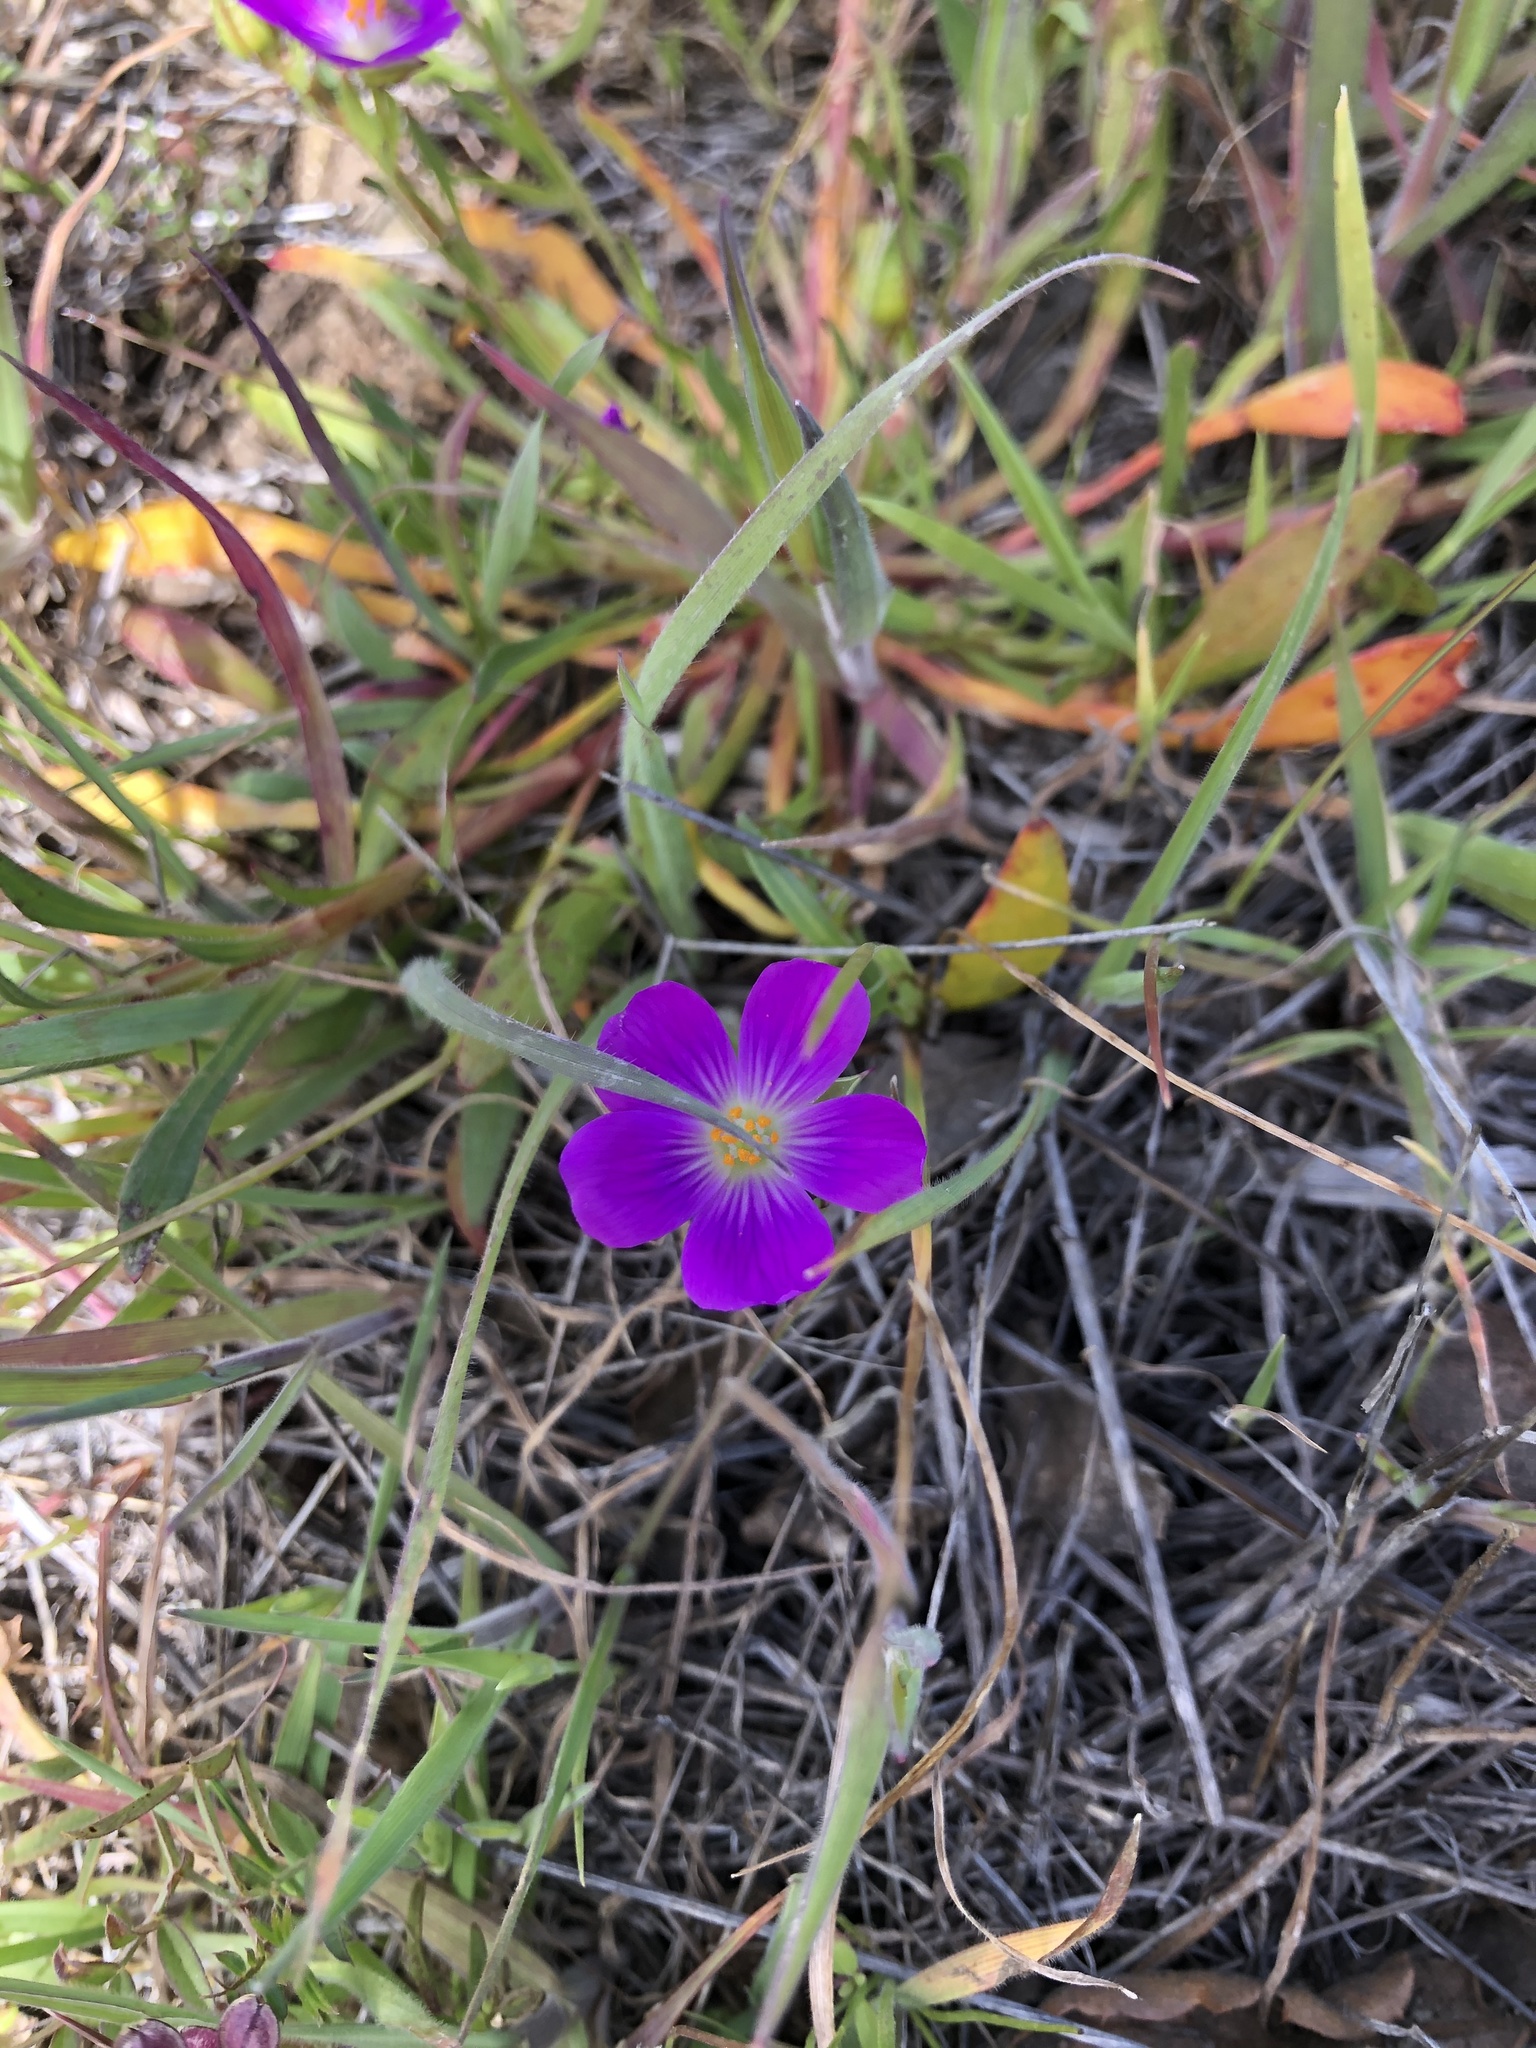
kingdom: Plantae
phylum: Tracheophyta
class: Magnoliopsida
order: Caryophyllales
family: Montiaceae
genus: Calandrinia
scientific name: Calandrinia menziesii
